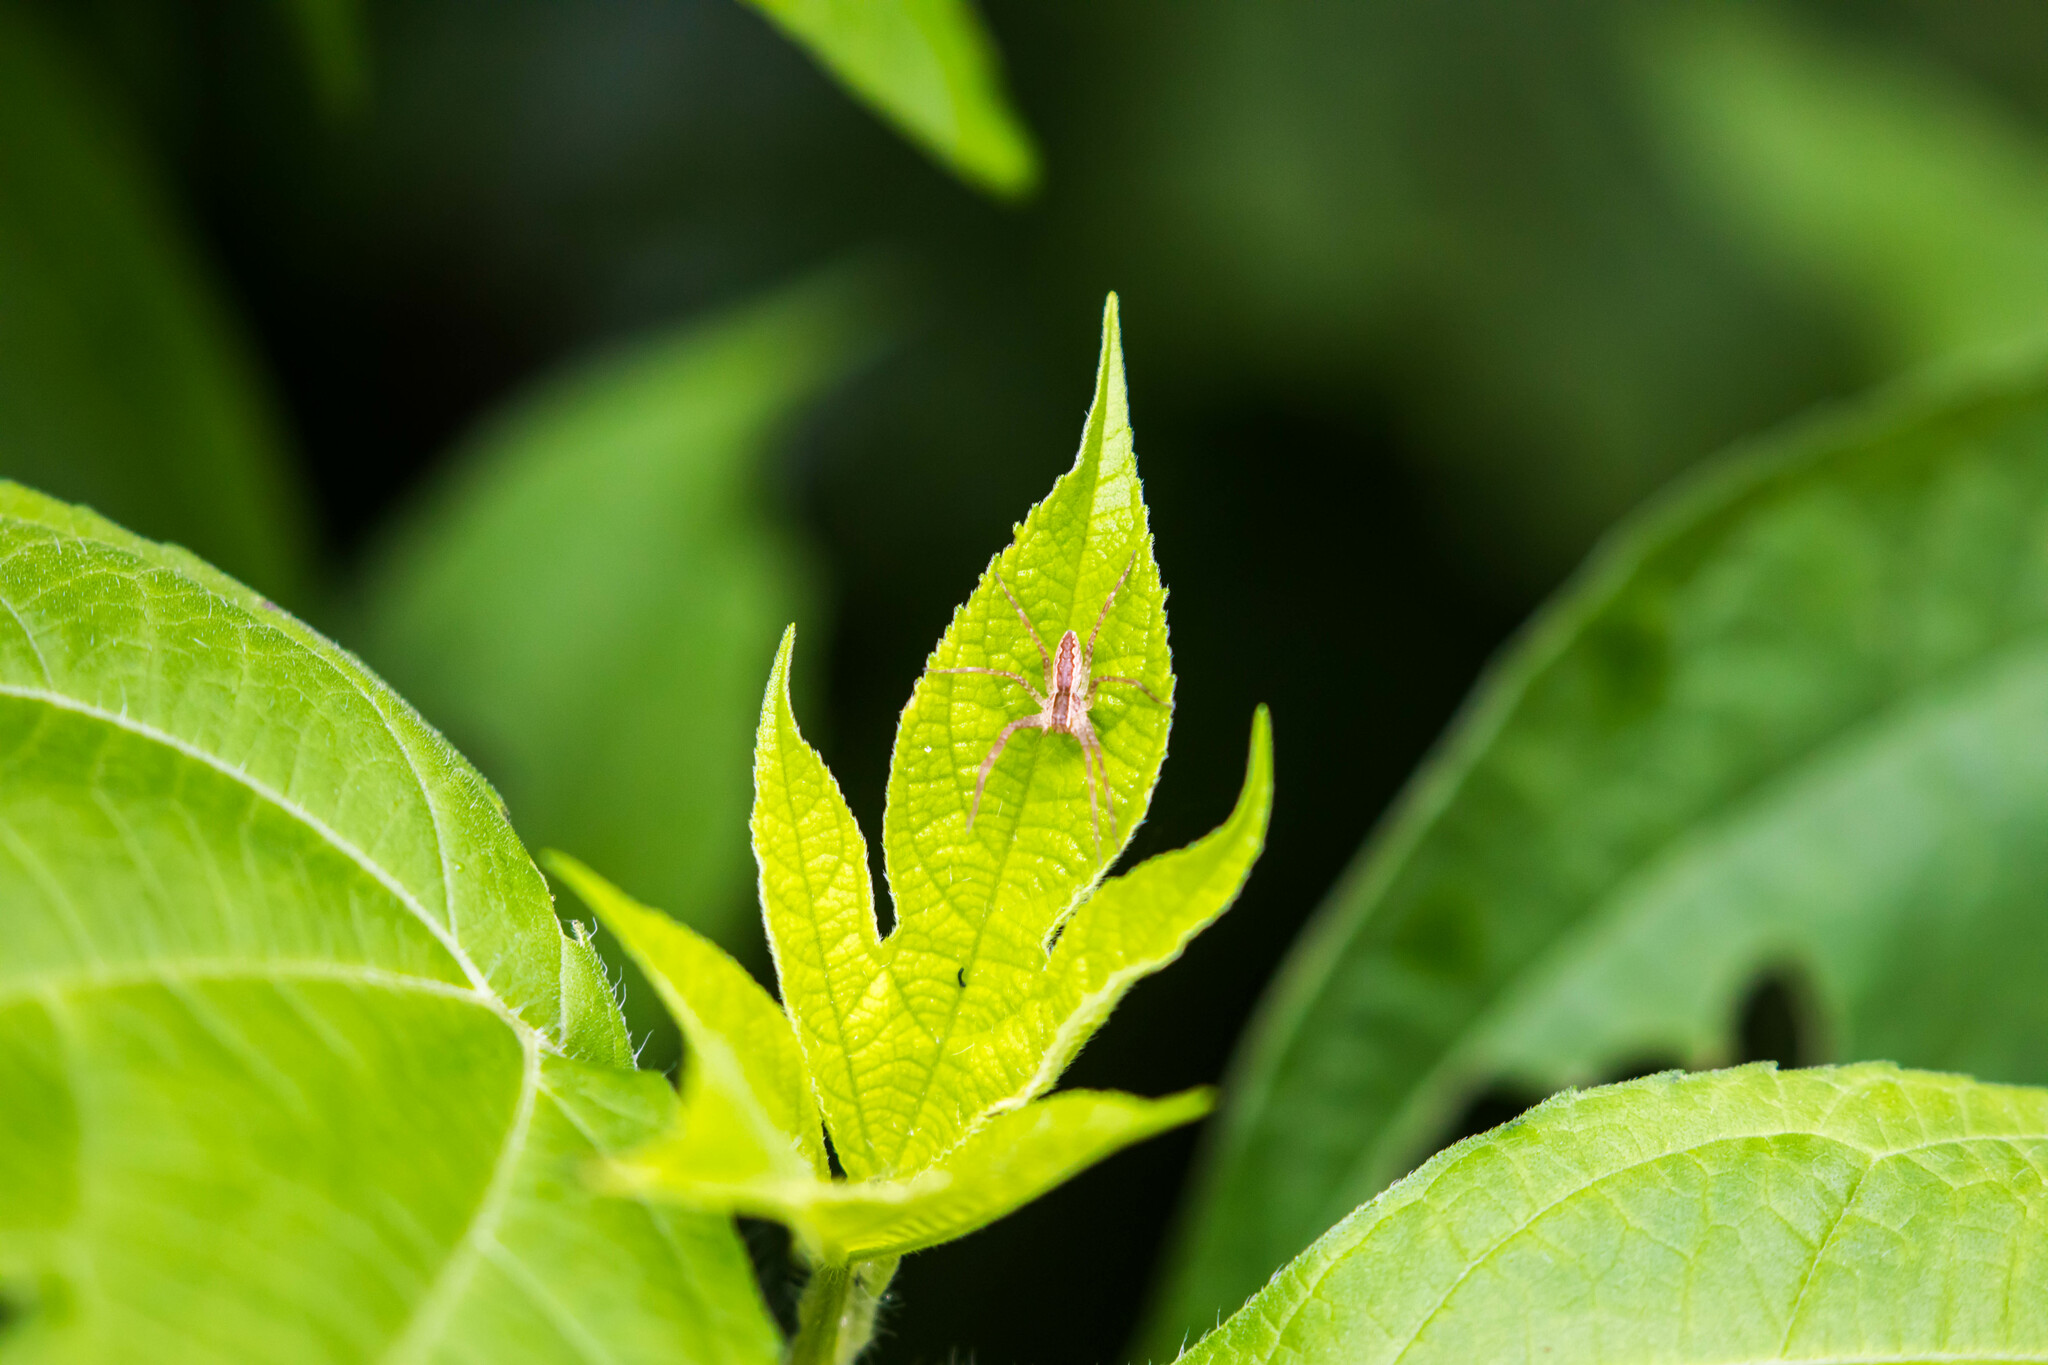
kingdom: Animalia
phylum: Arthropoda
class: Arachnida
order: Araneae
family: Pisauridae
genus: Pisaurina
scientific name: Pisaurina mira
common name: American nursery web spider
